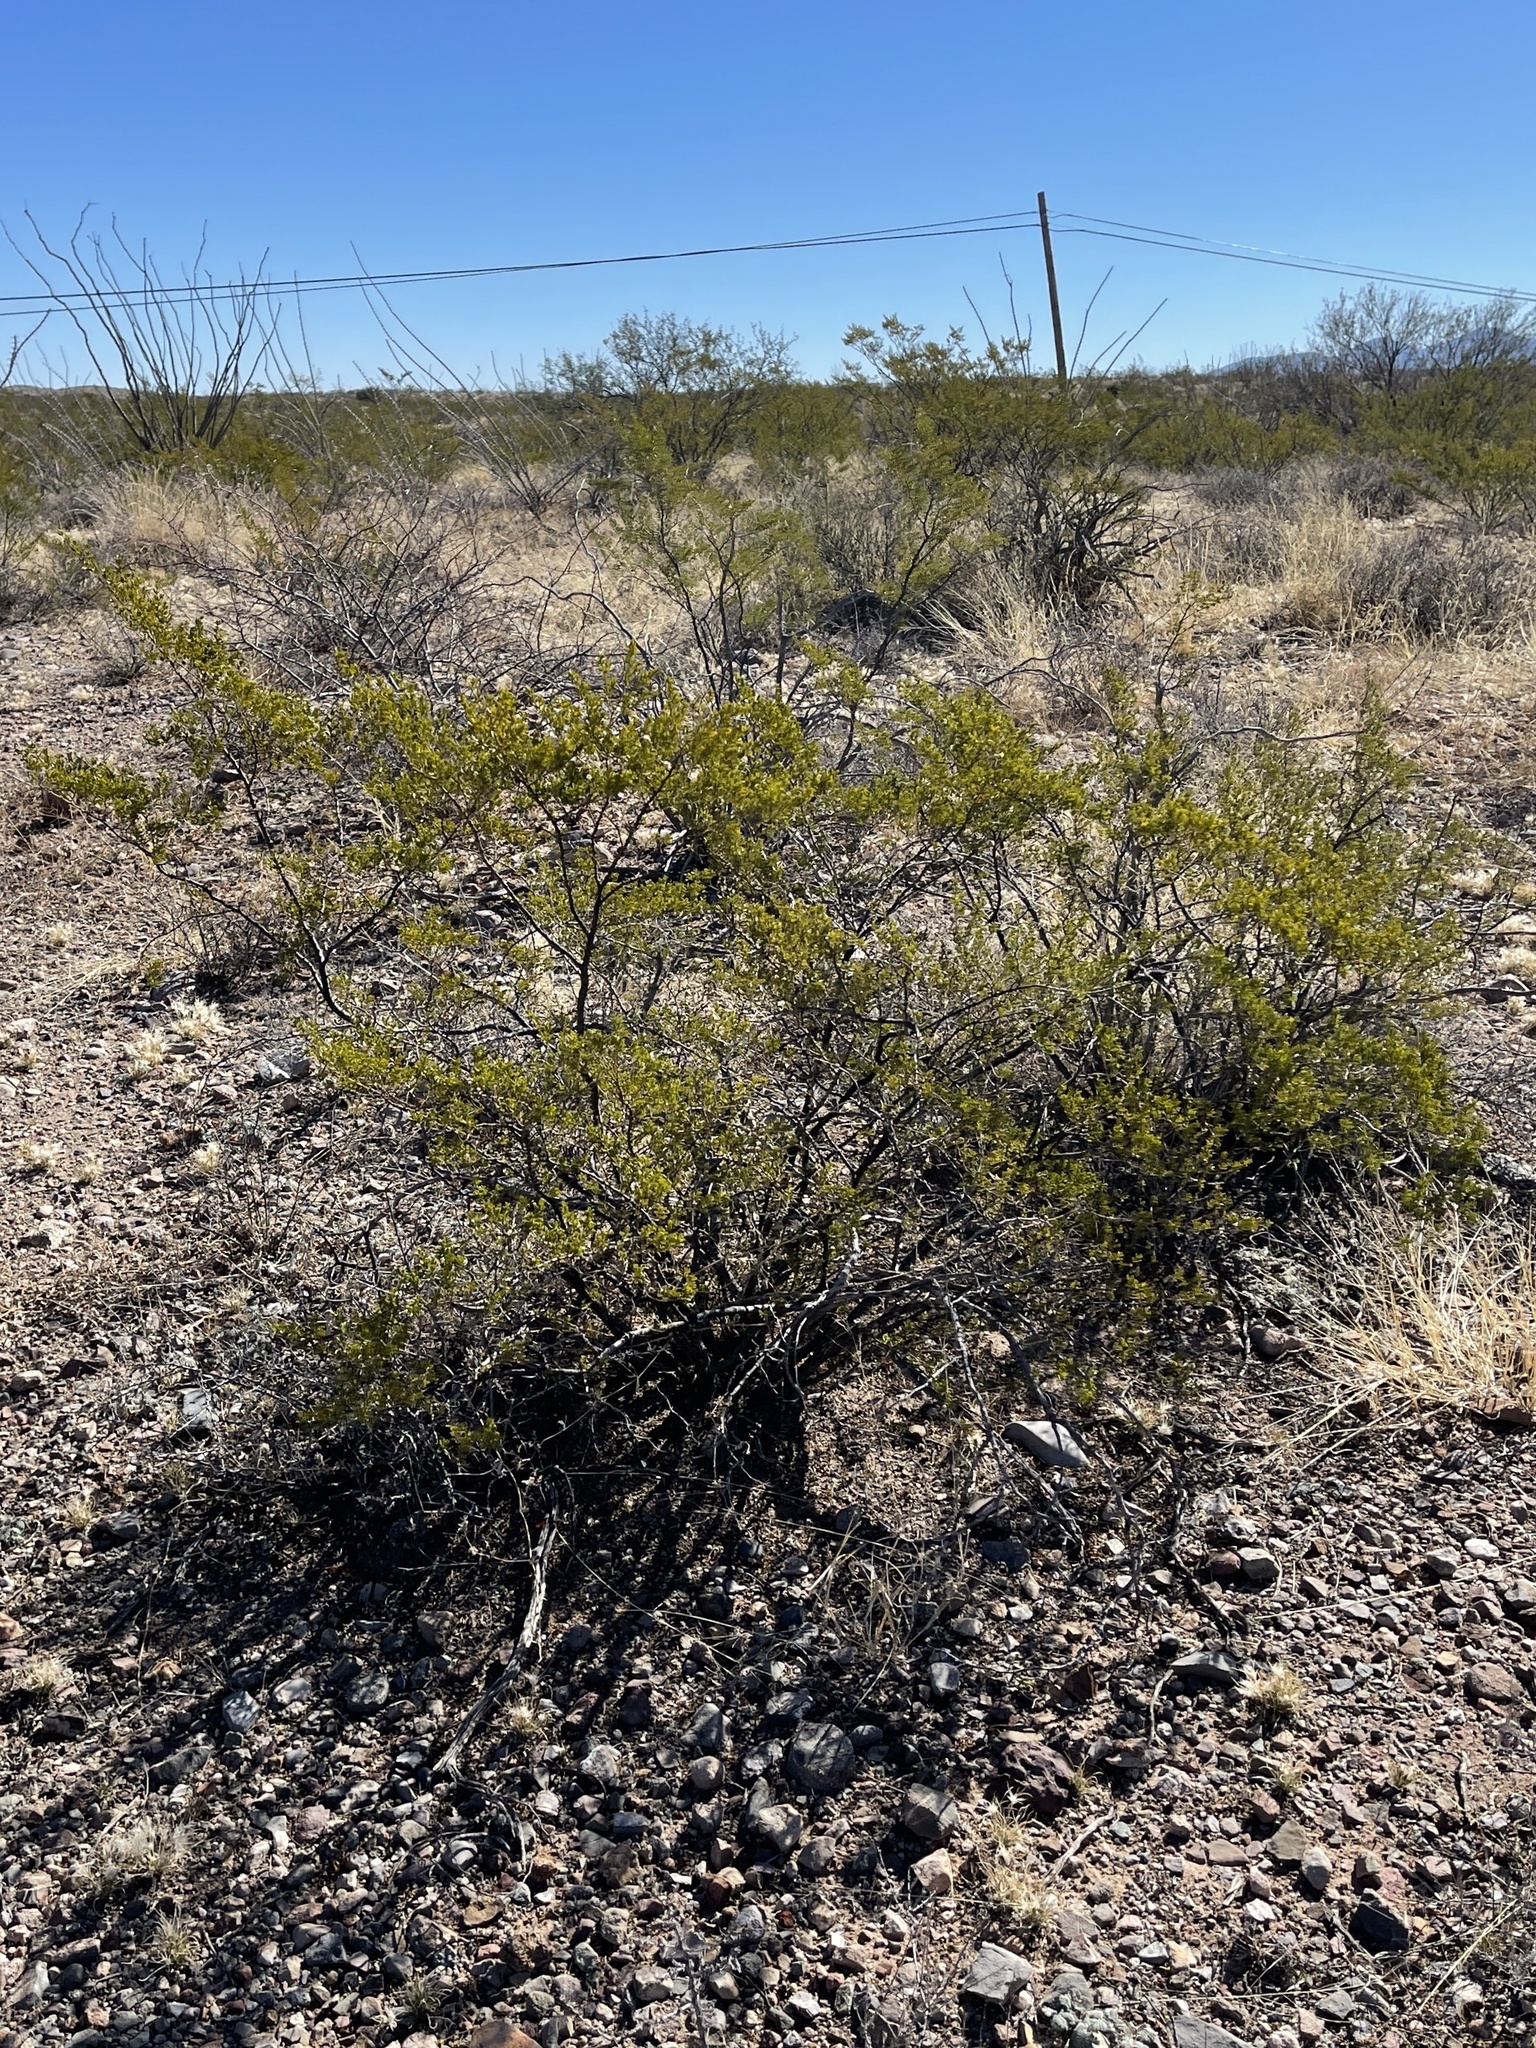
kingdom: Plantae
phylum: Tracheophyta
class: Magnoliopsida
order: Zygophyllales
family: Zygophyllaceae
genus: Larrea
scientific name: Larrea tridentata
